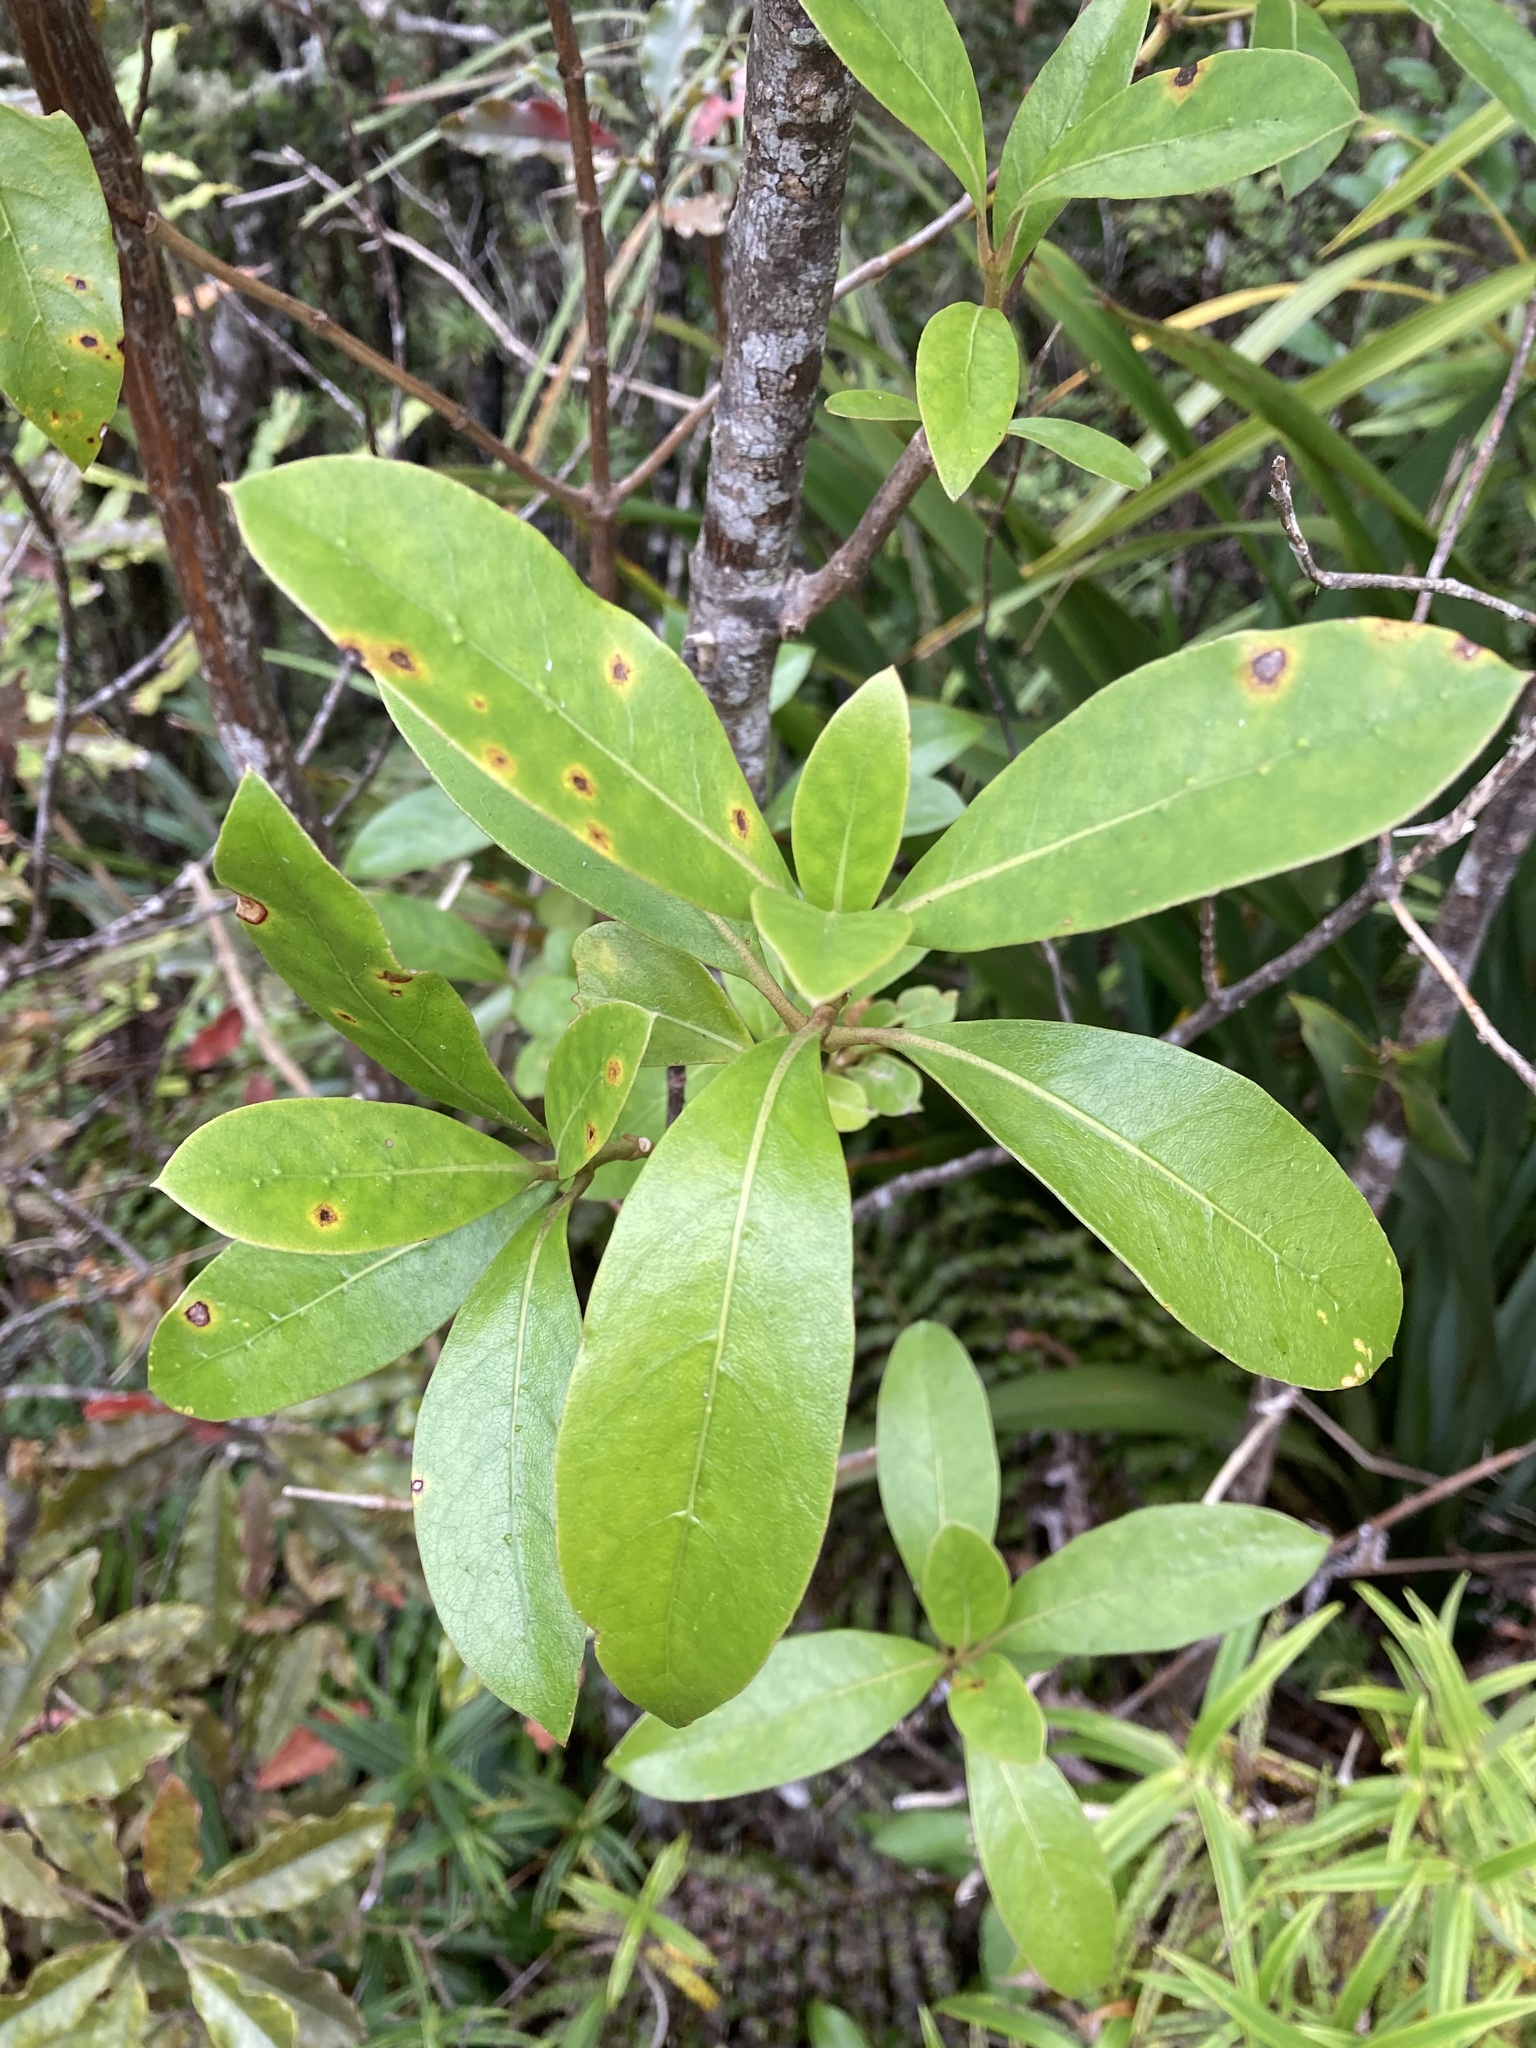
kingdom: Plantae
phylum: Tracheophyta
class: Magnoliopsida
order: Gentianales
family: Rubiaceae
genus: Coprosma
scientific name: Coprosma lucida
